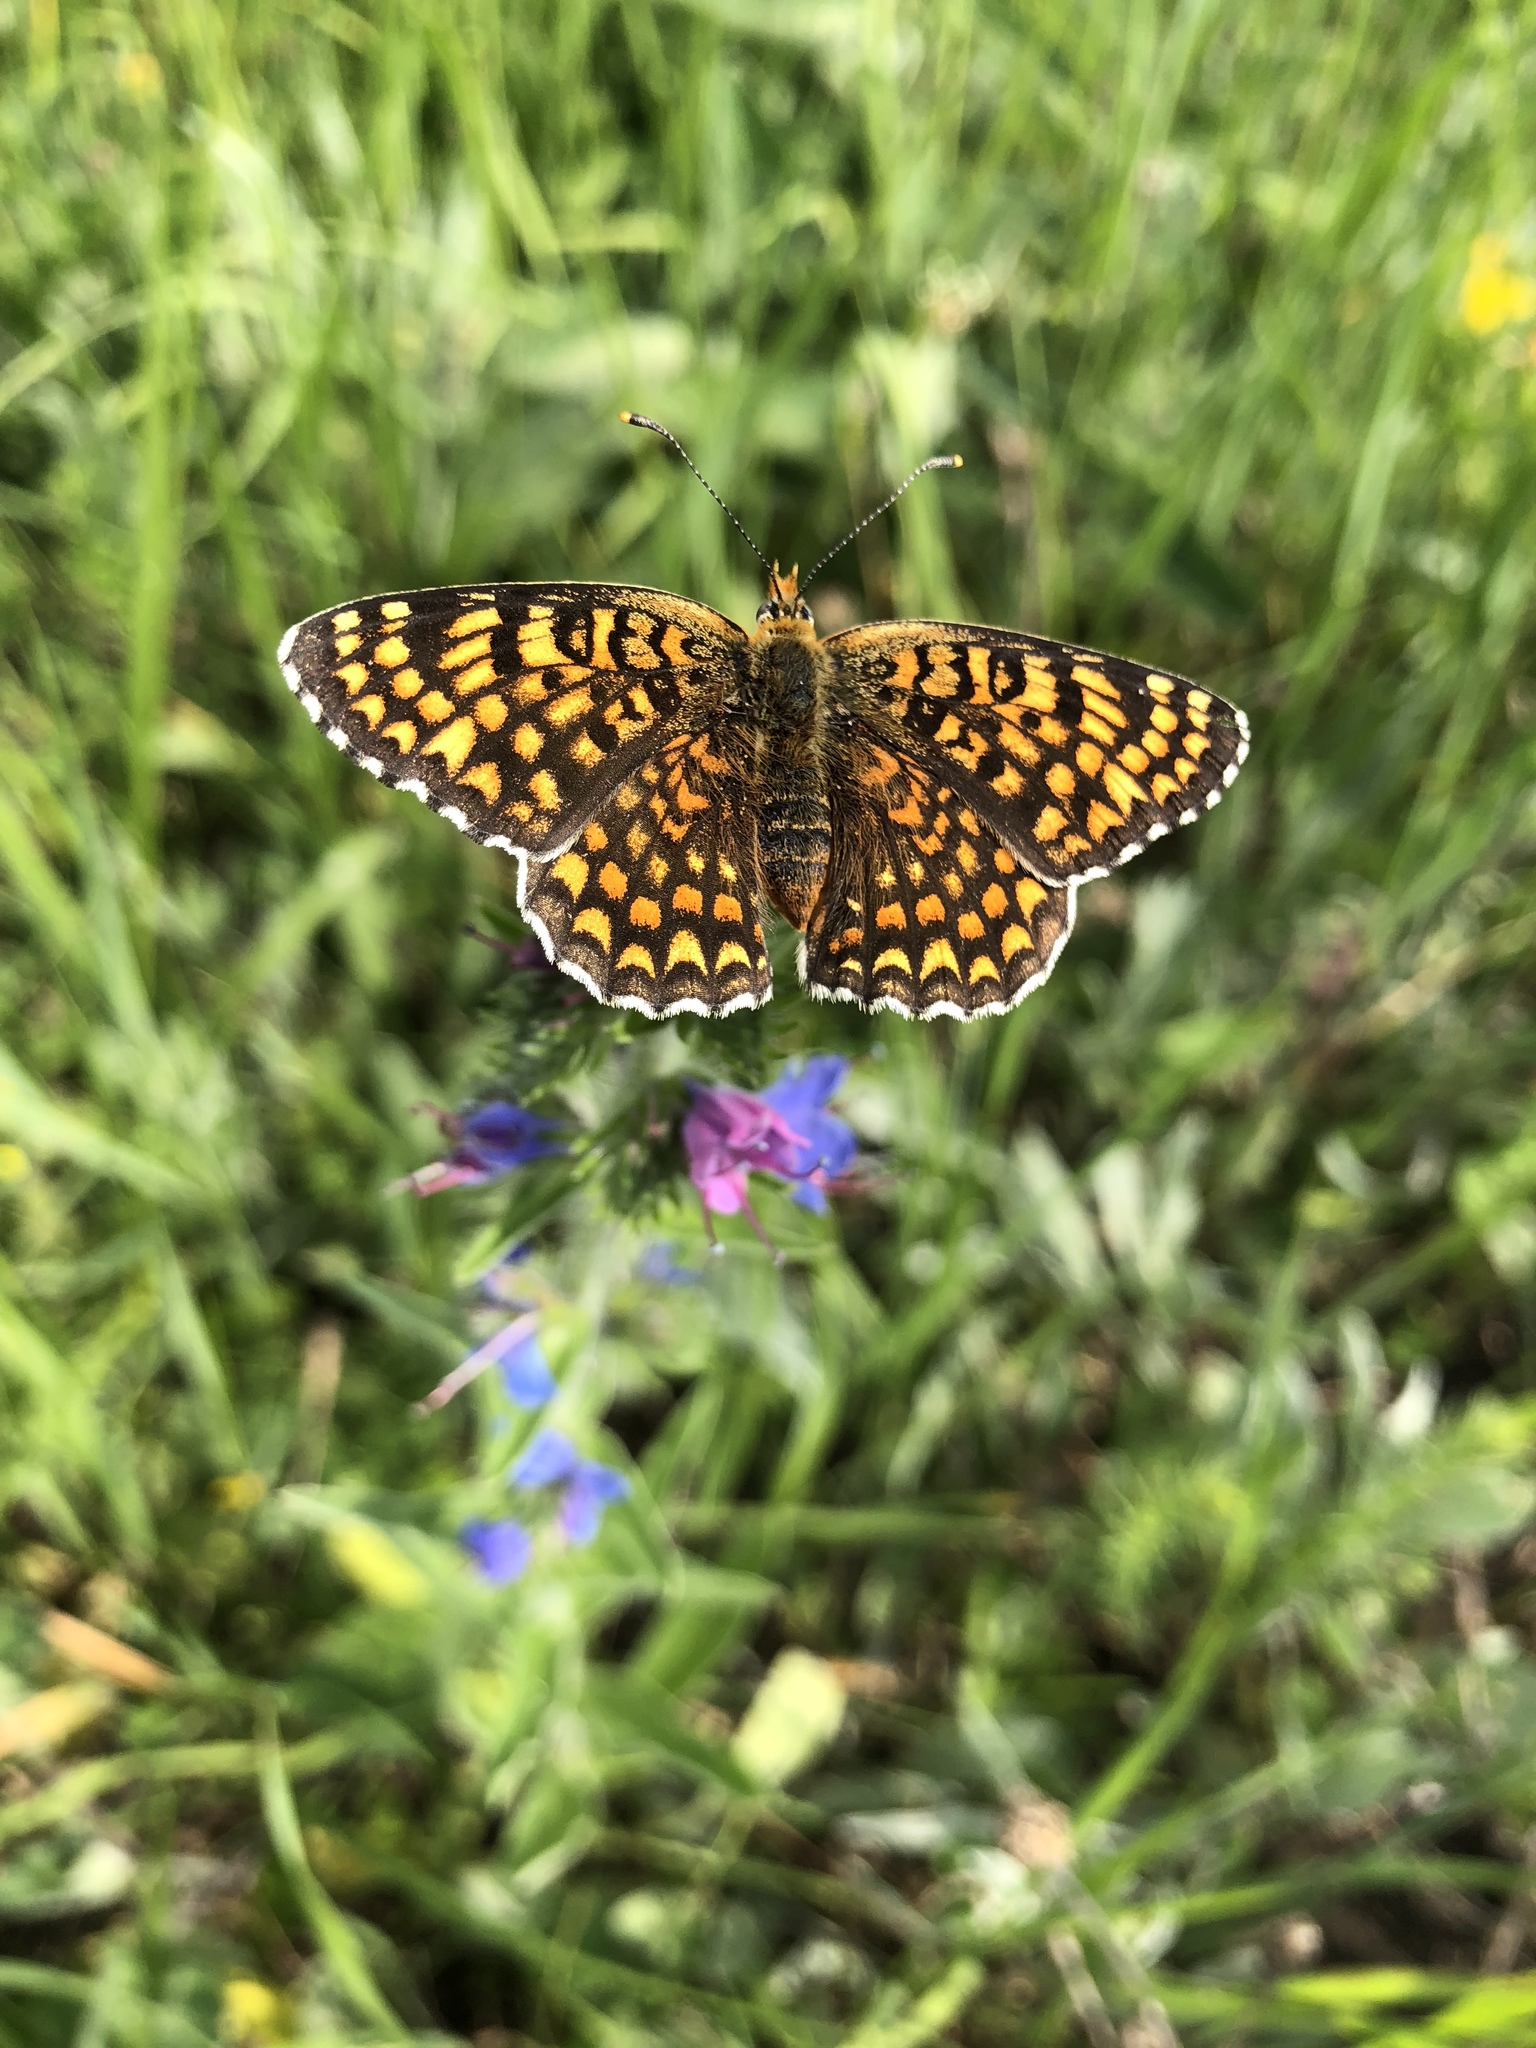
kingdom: Animalia
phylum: Arthropoda
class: Insecta
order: Lepidoptera
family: Nymphalidae
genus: Melitaea
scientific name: Melitaea phoebe
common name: Knapweed fritillary
